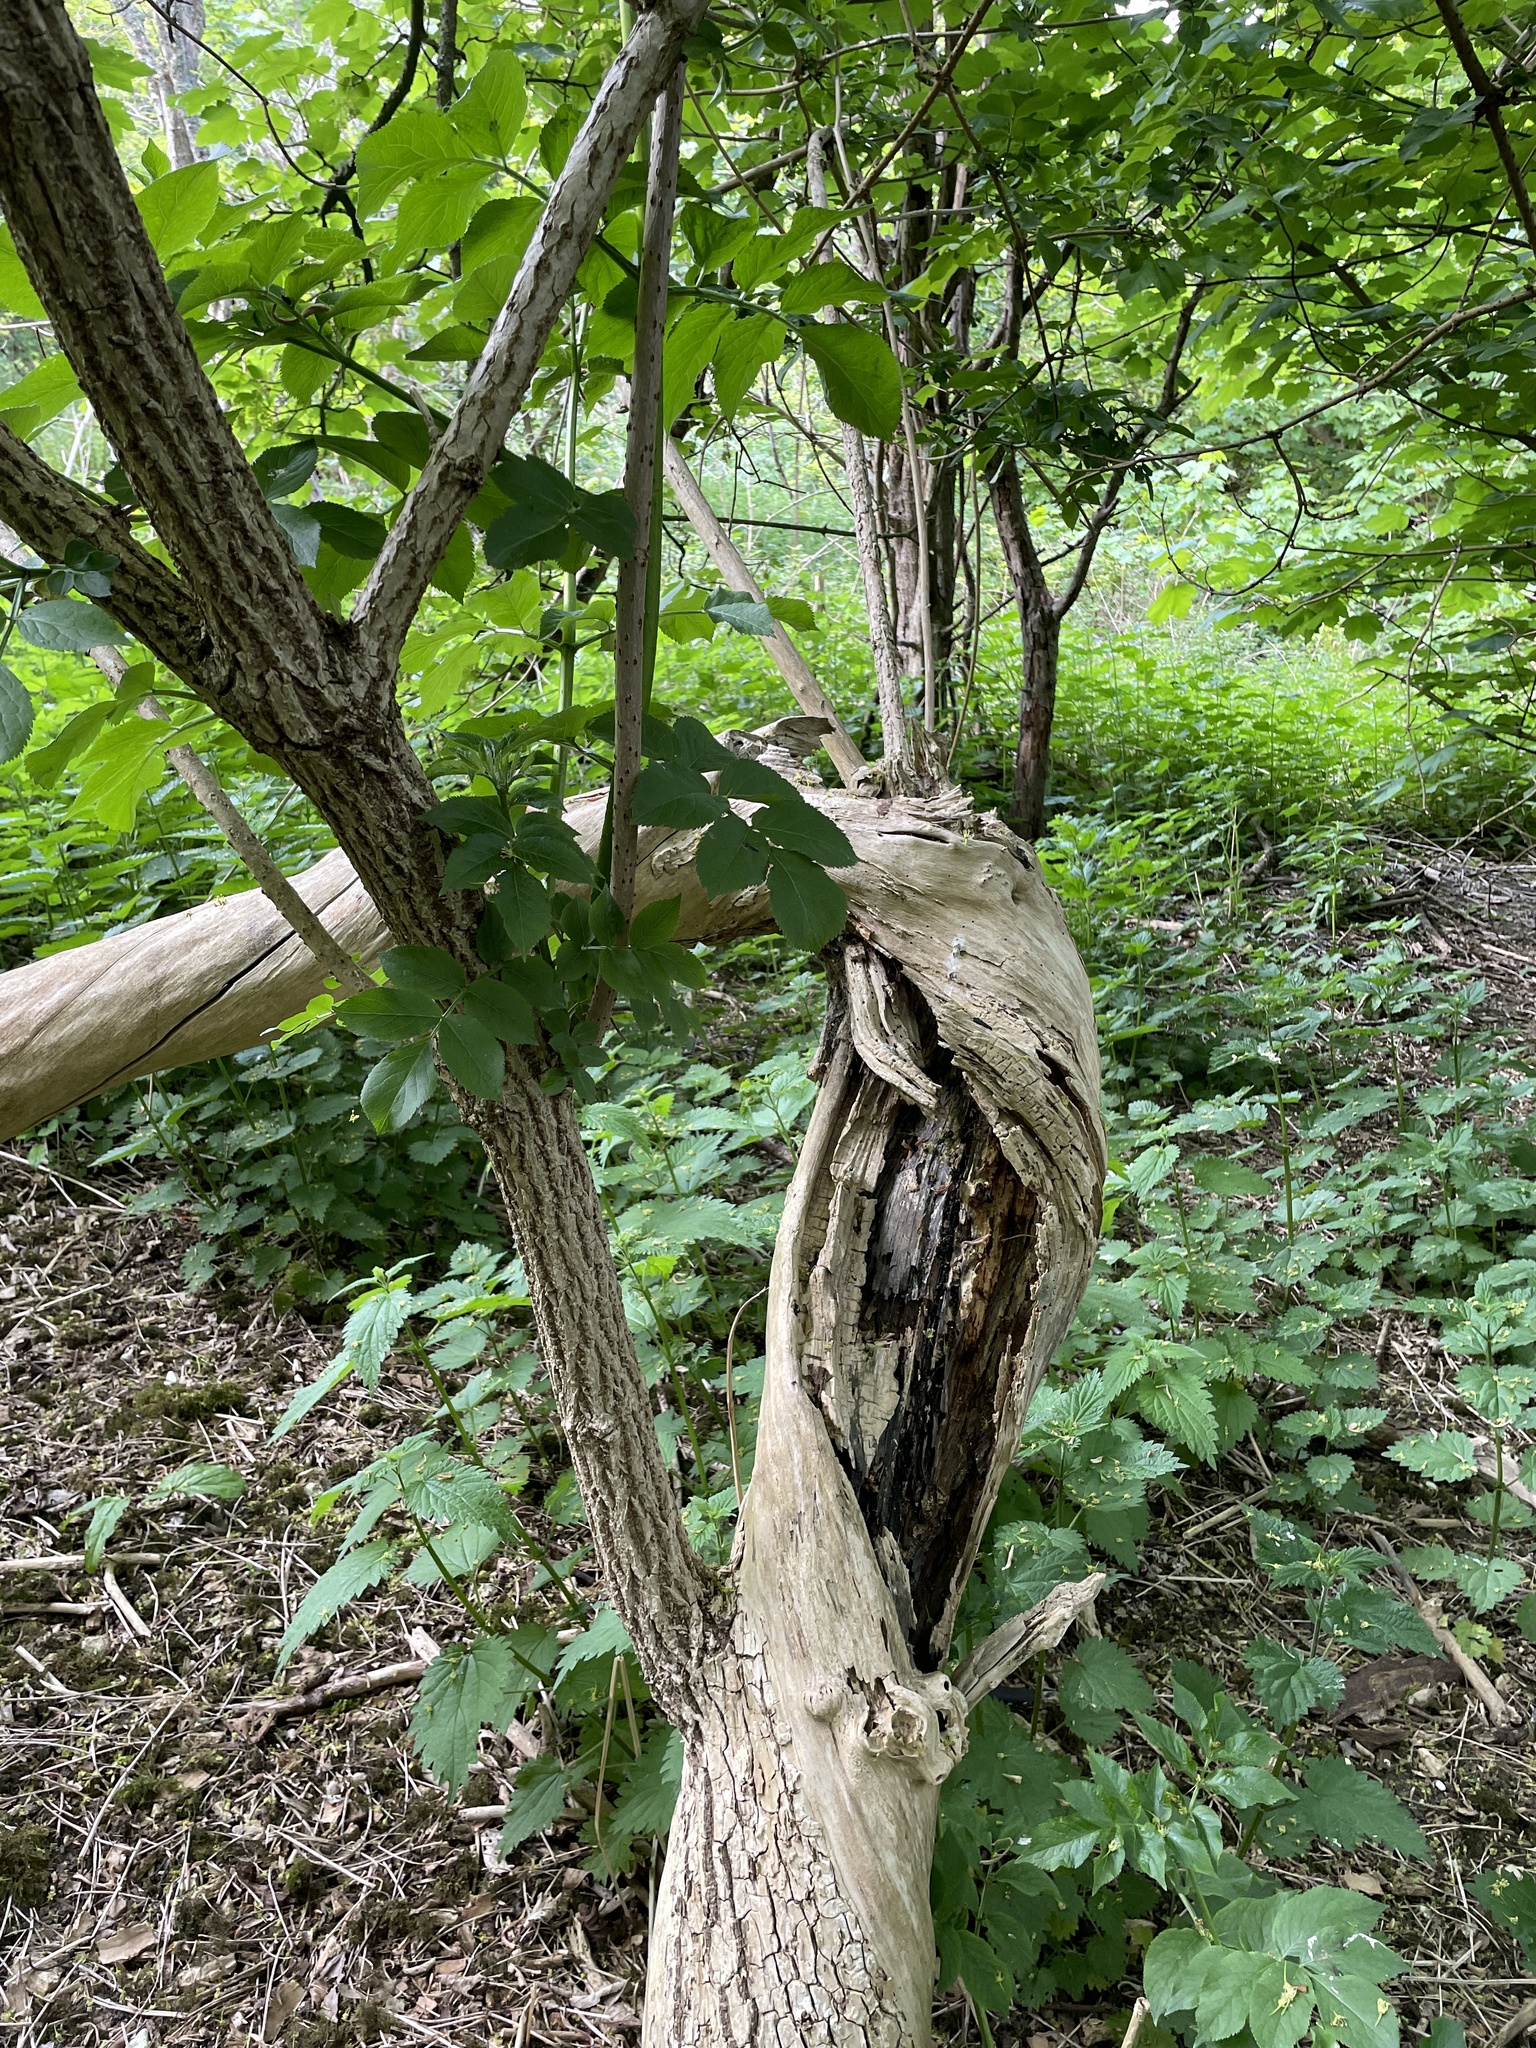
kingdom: Plantae
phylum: Tracheophyta
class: Magnoliopsida
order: Dipsacales
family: Viburnaceae
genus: Sambucus
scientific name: Sambucus nigra
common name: Elder
